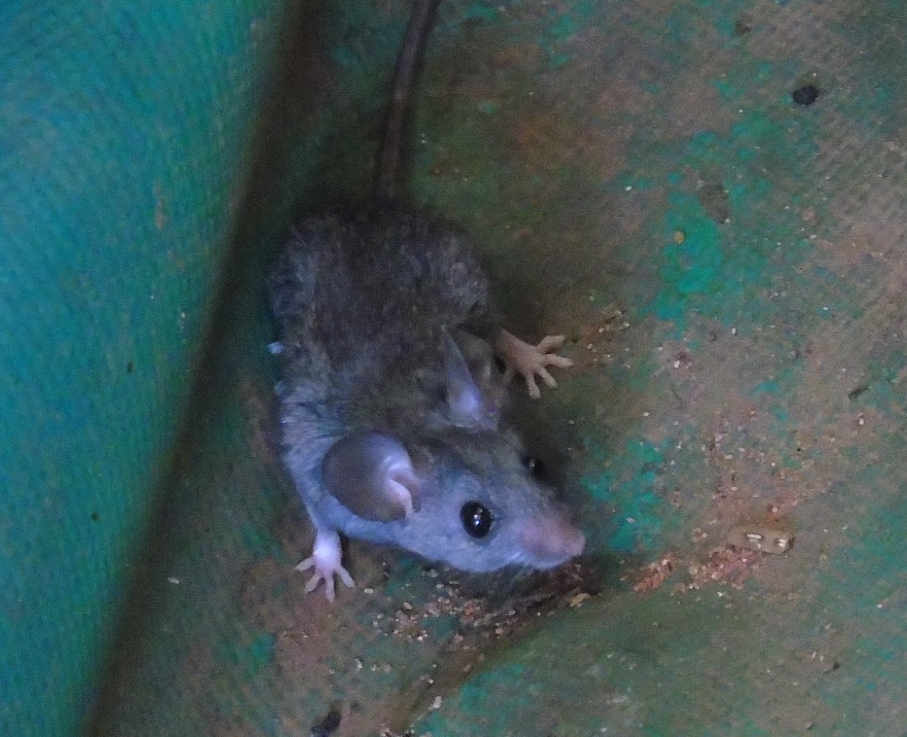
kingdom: Animalia
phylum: Chordata
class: Mammalia
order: Rodentia
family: Cricetidae
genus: Peromyscus
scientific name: Peromyscus simulus
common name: Sinaloan deermouse
